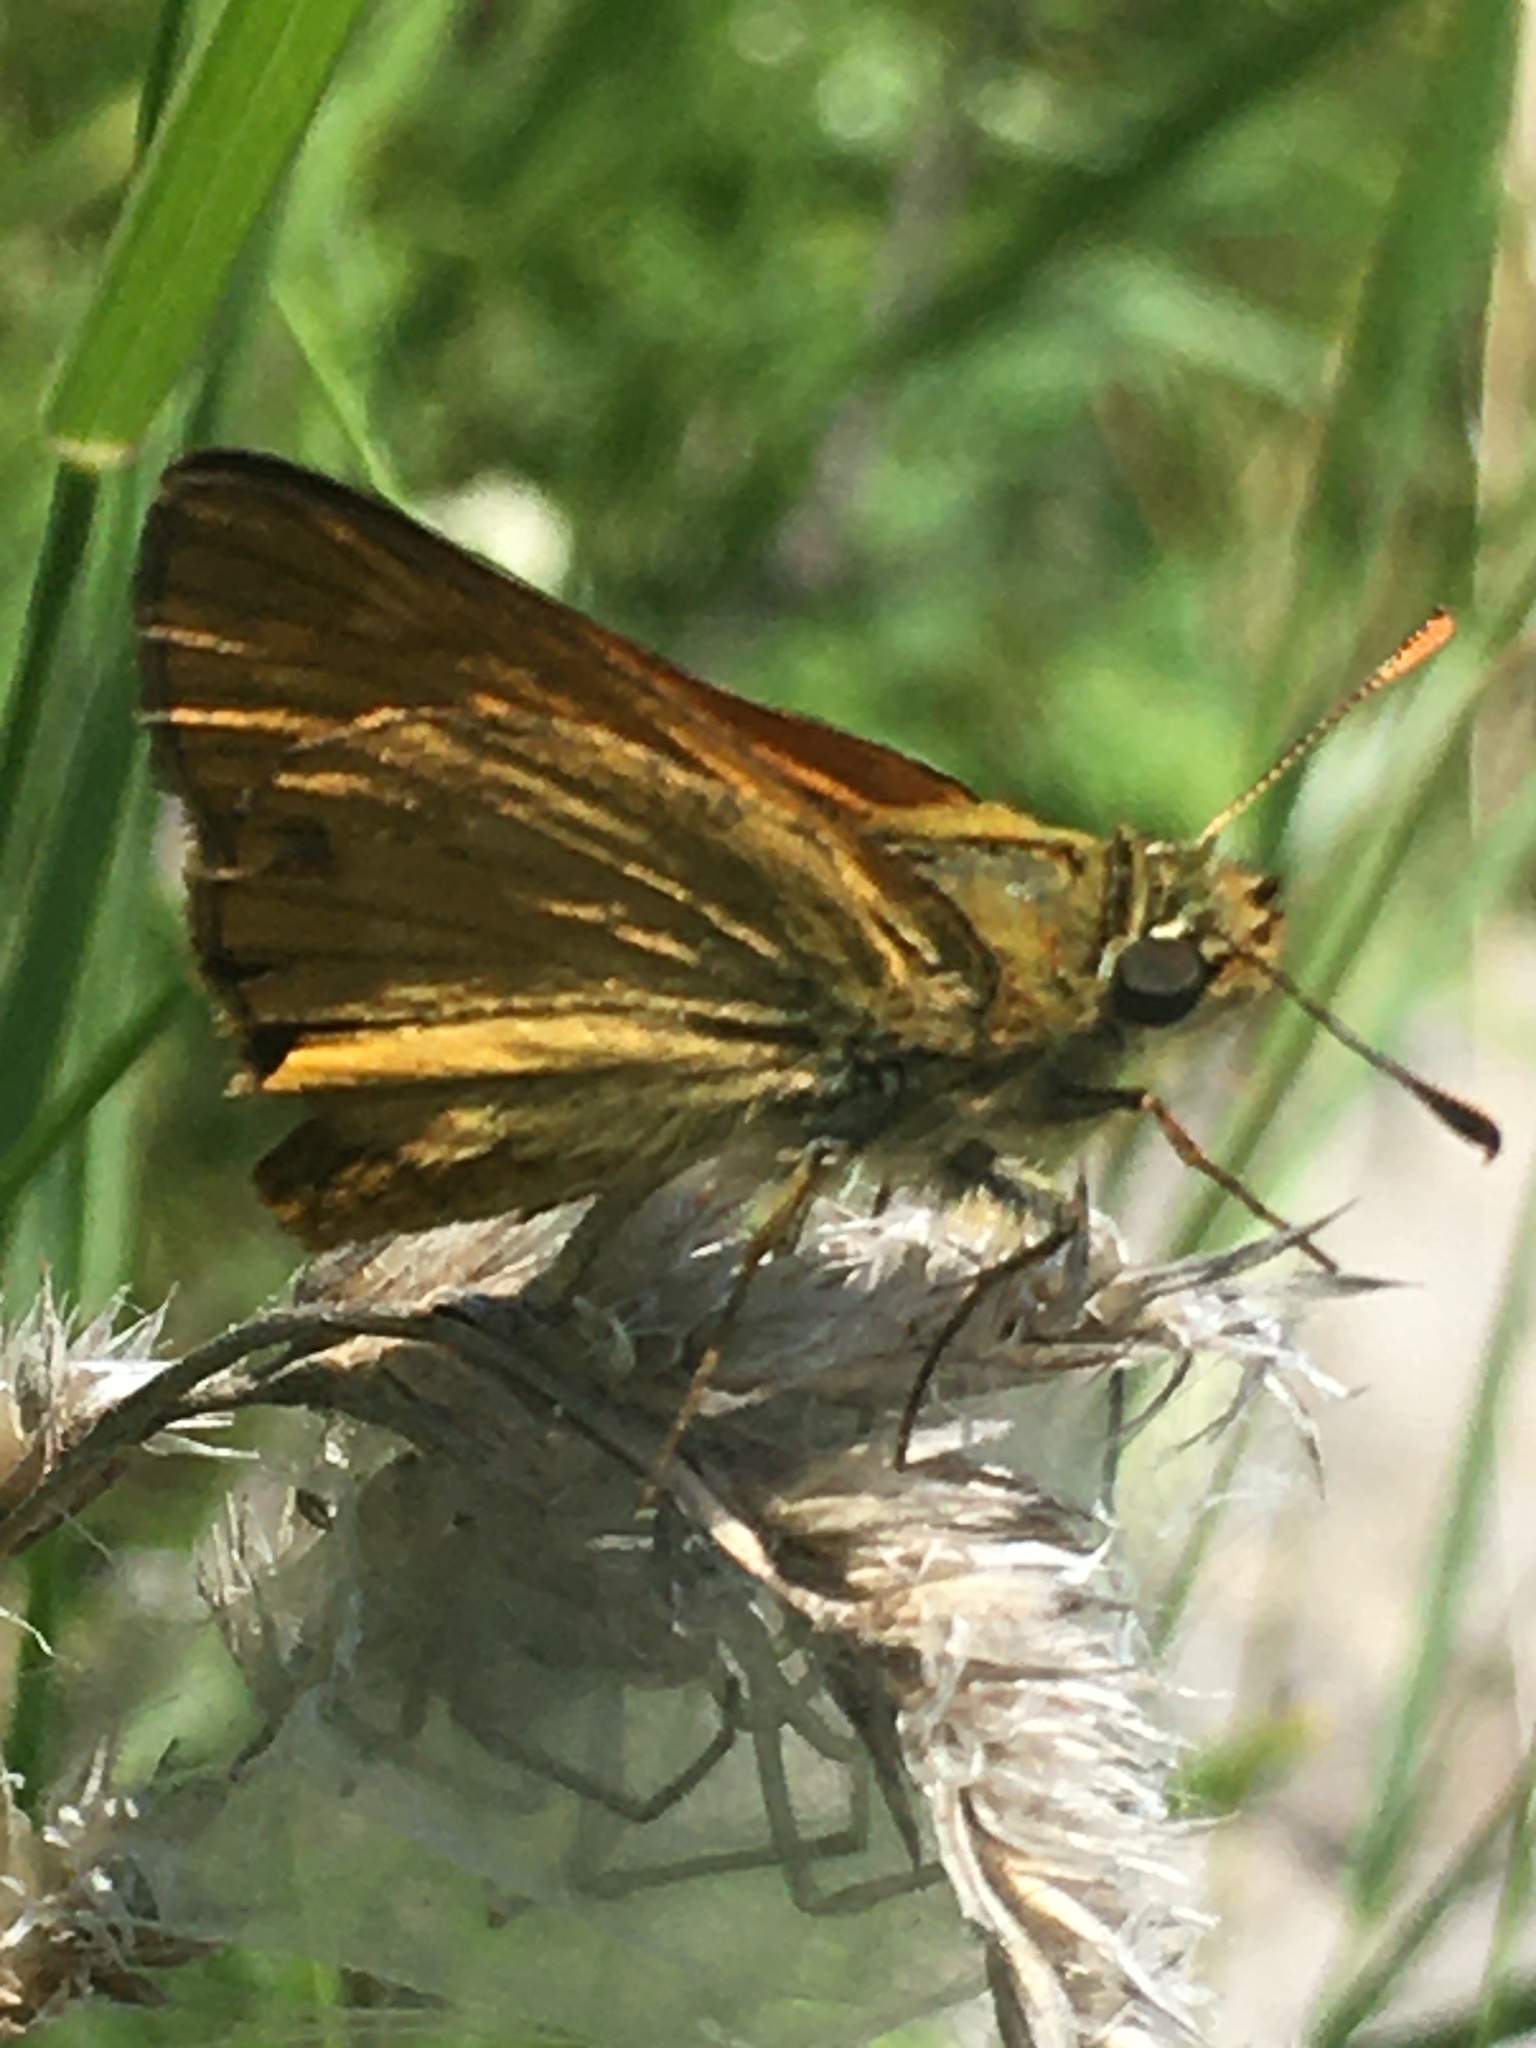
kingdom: Animalia
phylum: Arthropoda
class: Insecta
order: Lepidoptera
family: Hesperiidae
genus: Ochlodes
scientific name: Ochlodes venata
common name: Large skipper
